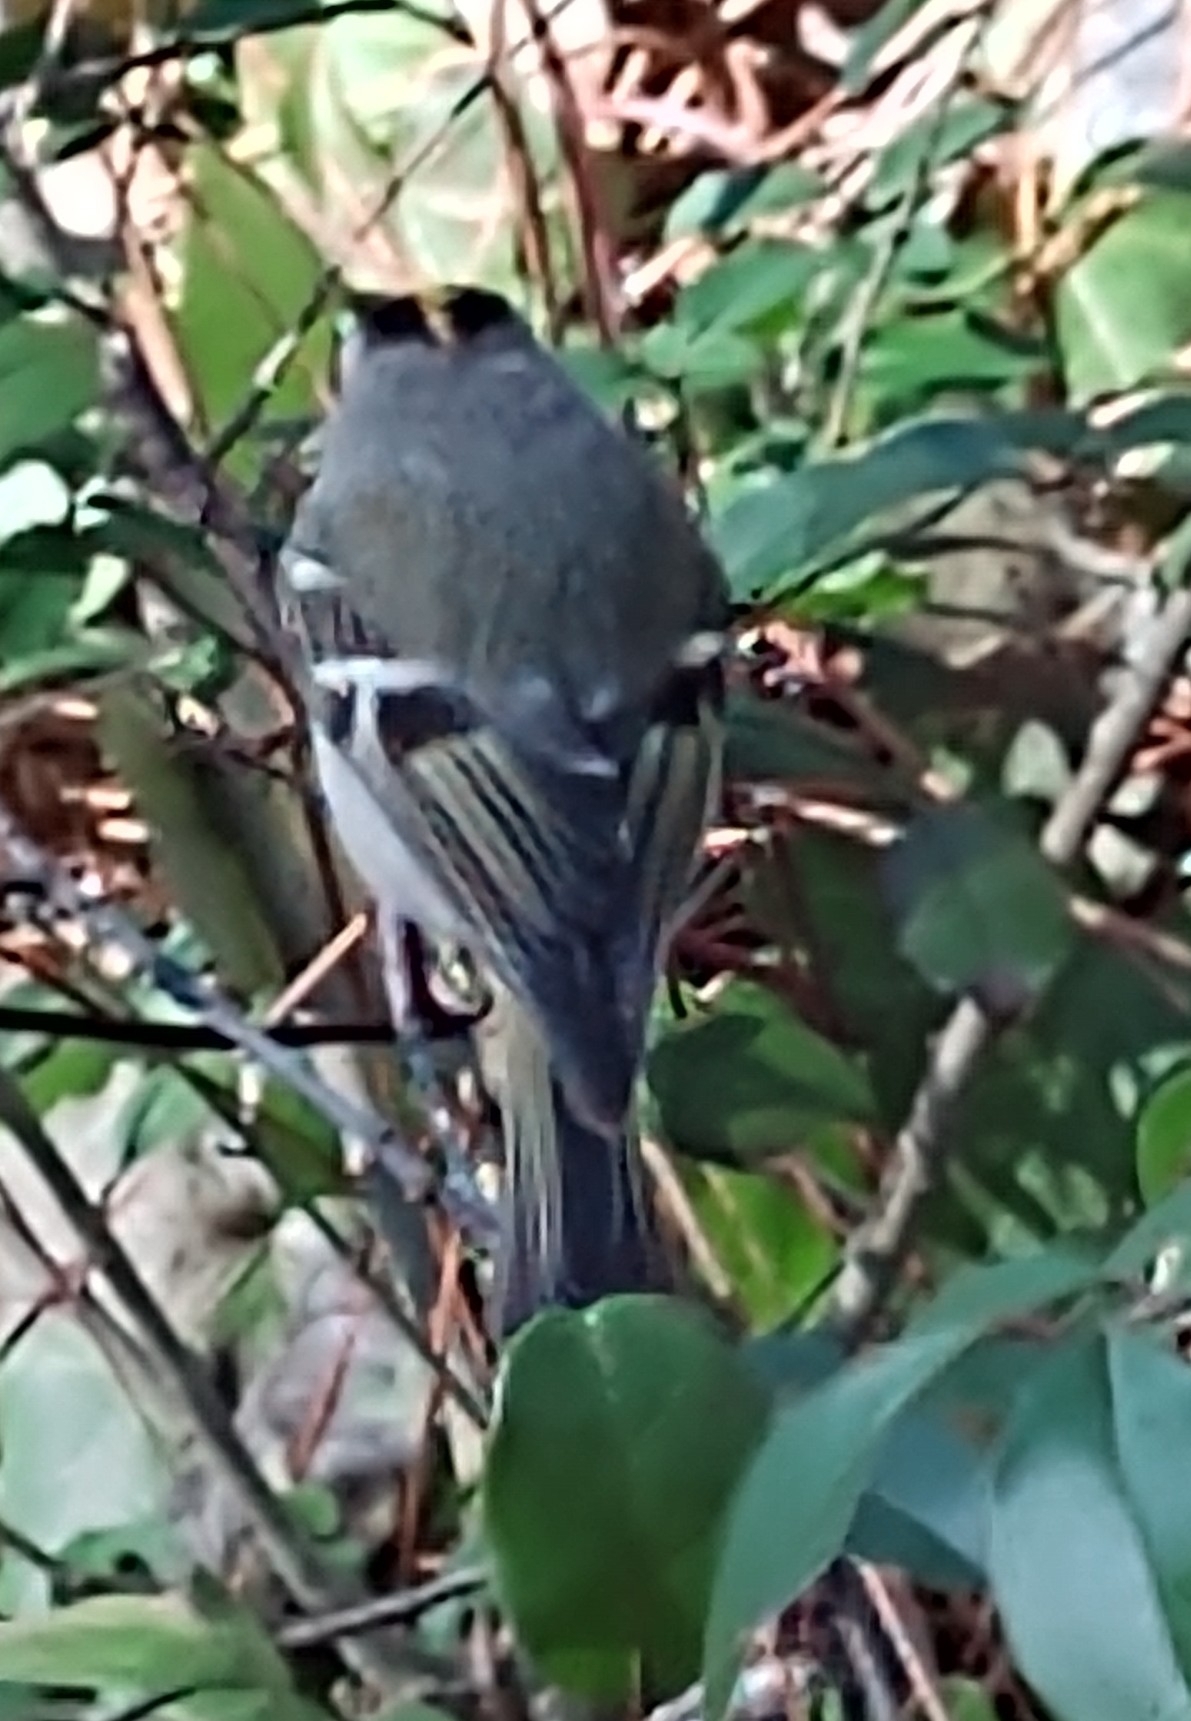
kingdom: Animalia
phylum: Chordata
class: Aves
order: Passeriformes
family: Regulidae
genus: Regulus
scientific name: Regulus satrapa
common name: Golden-crowned kinglet
